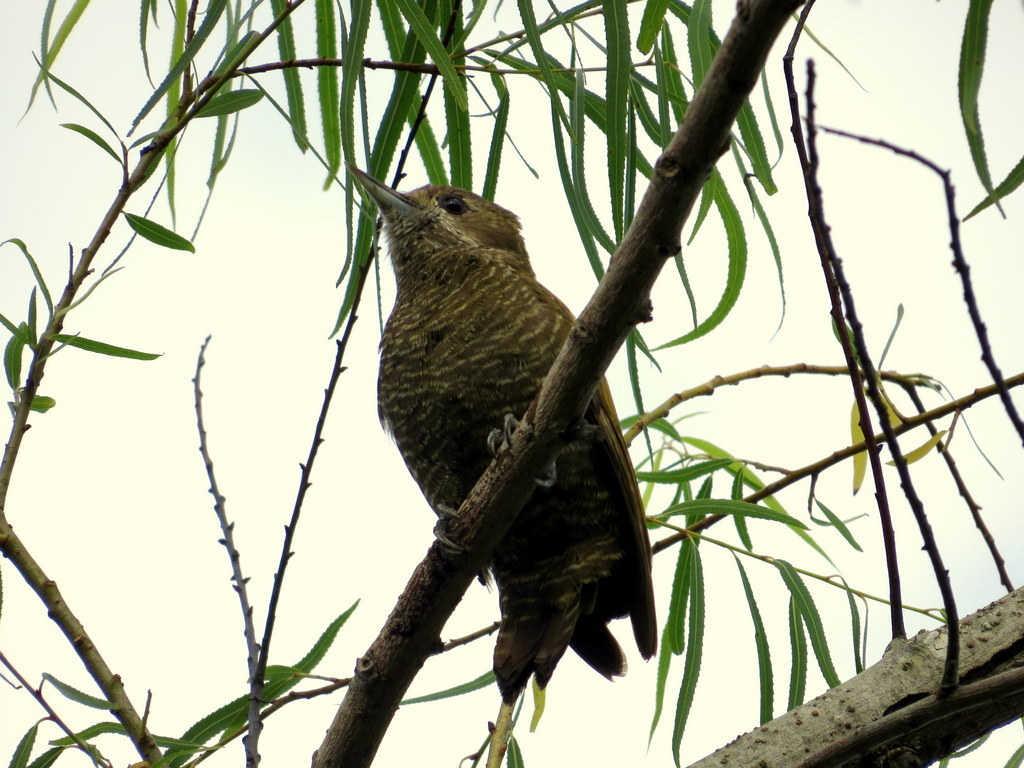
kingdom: Animalia
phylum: Chordata
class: Aves
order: Piciformes
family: Picidae
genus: Veniliornis
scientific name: Veniliornis passerinus
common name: Little woodpecker
